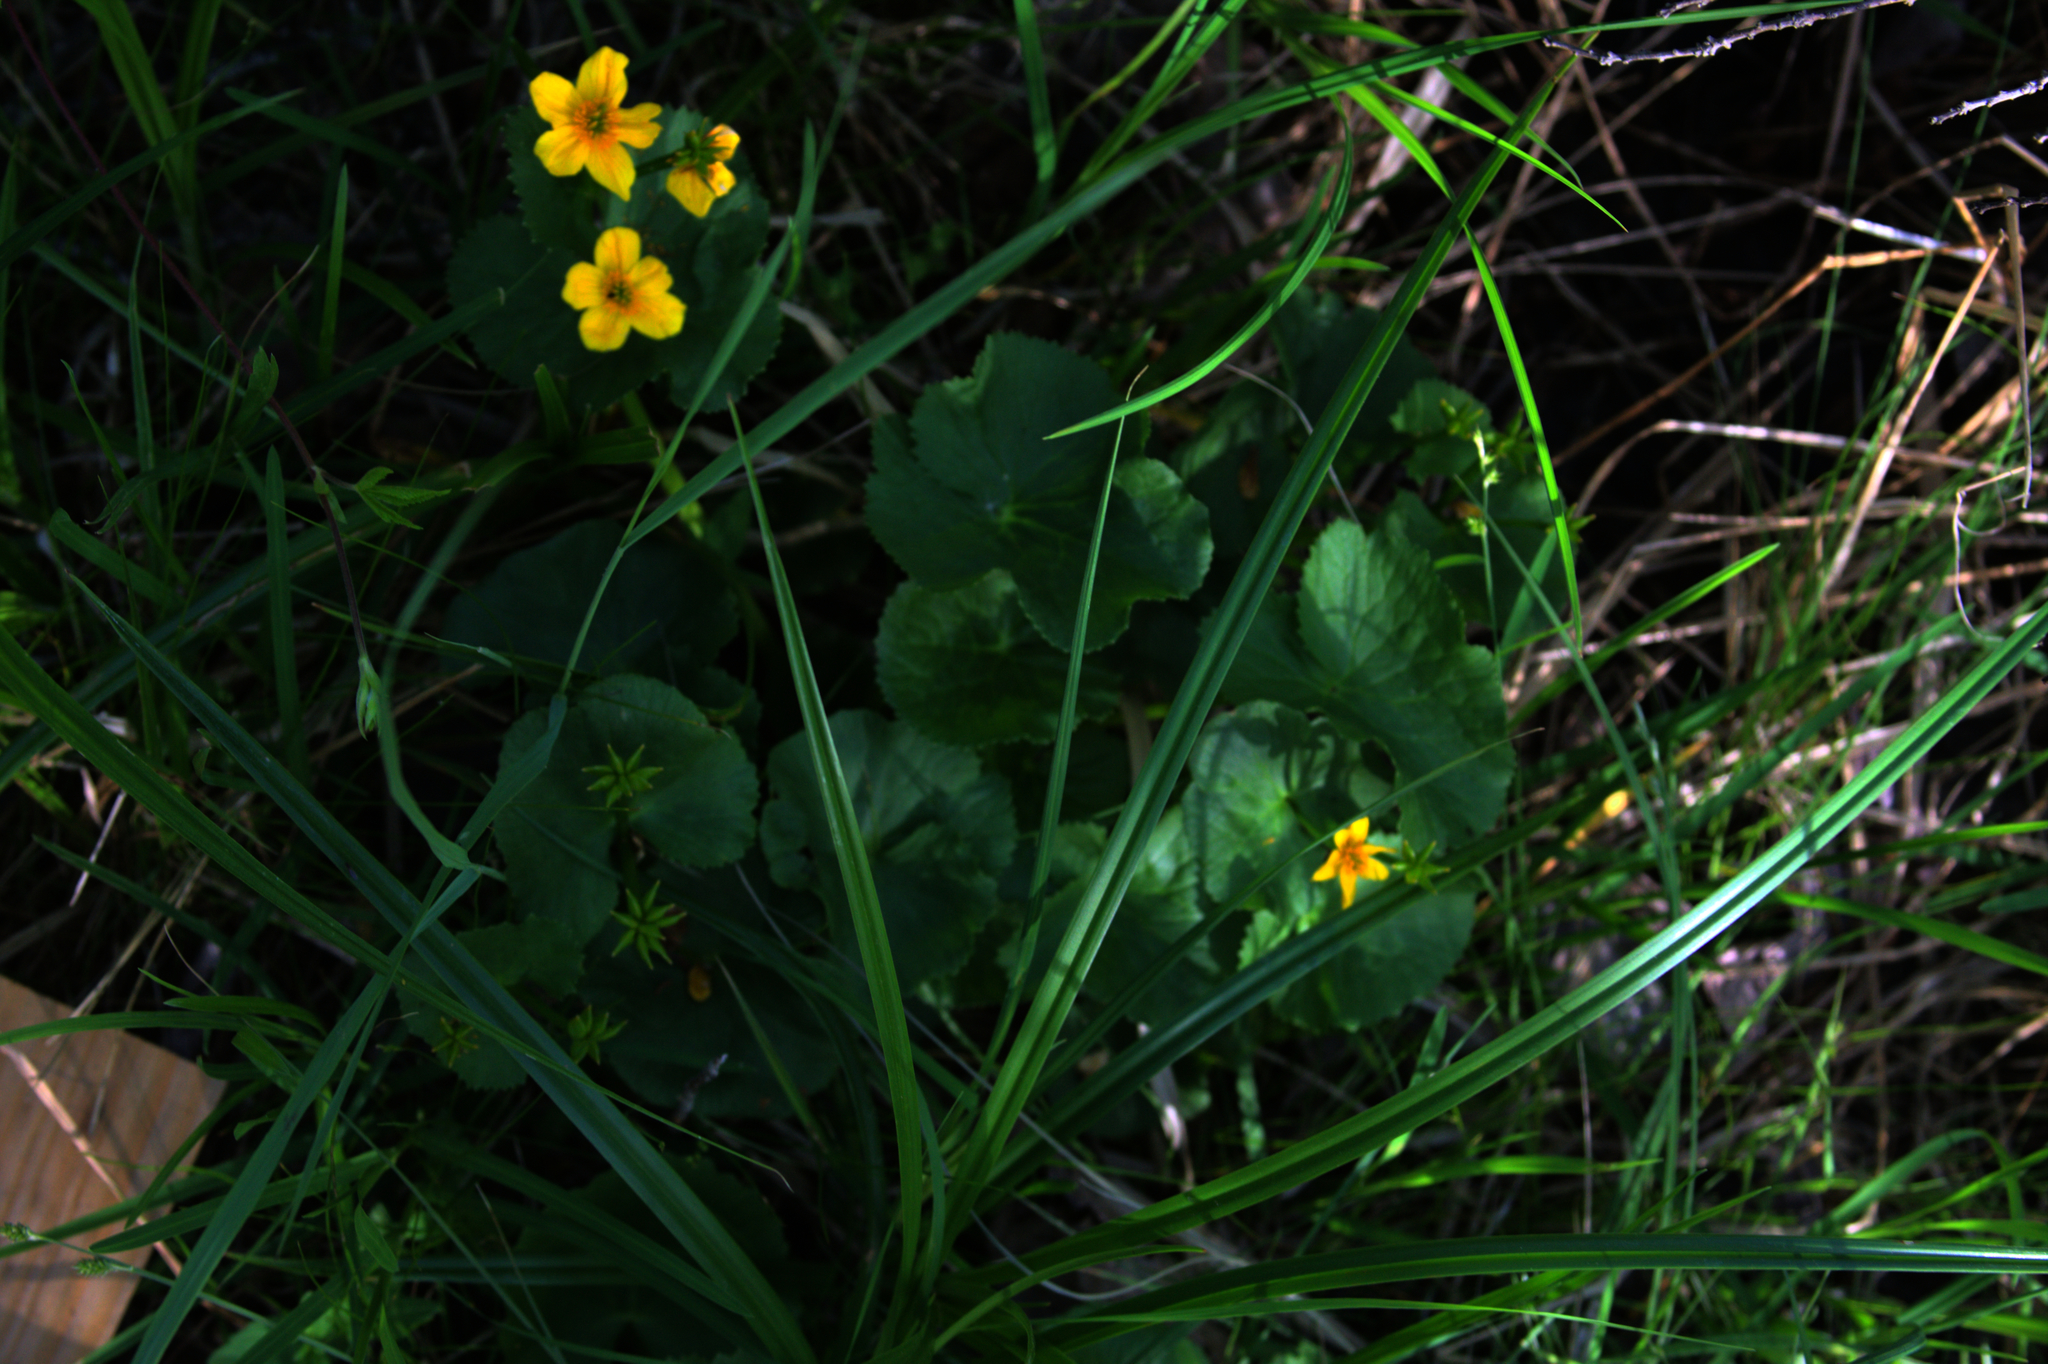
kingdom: Plantae
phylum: Tracheophyta
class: Magnoliopsida
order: Ranunculales
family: Ranunculaceae
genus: Caltha
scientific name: Caltha palustris
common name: Marsh marigold
